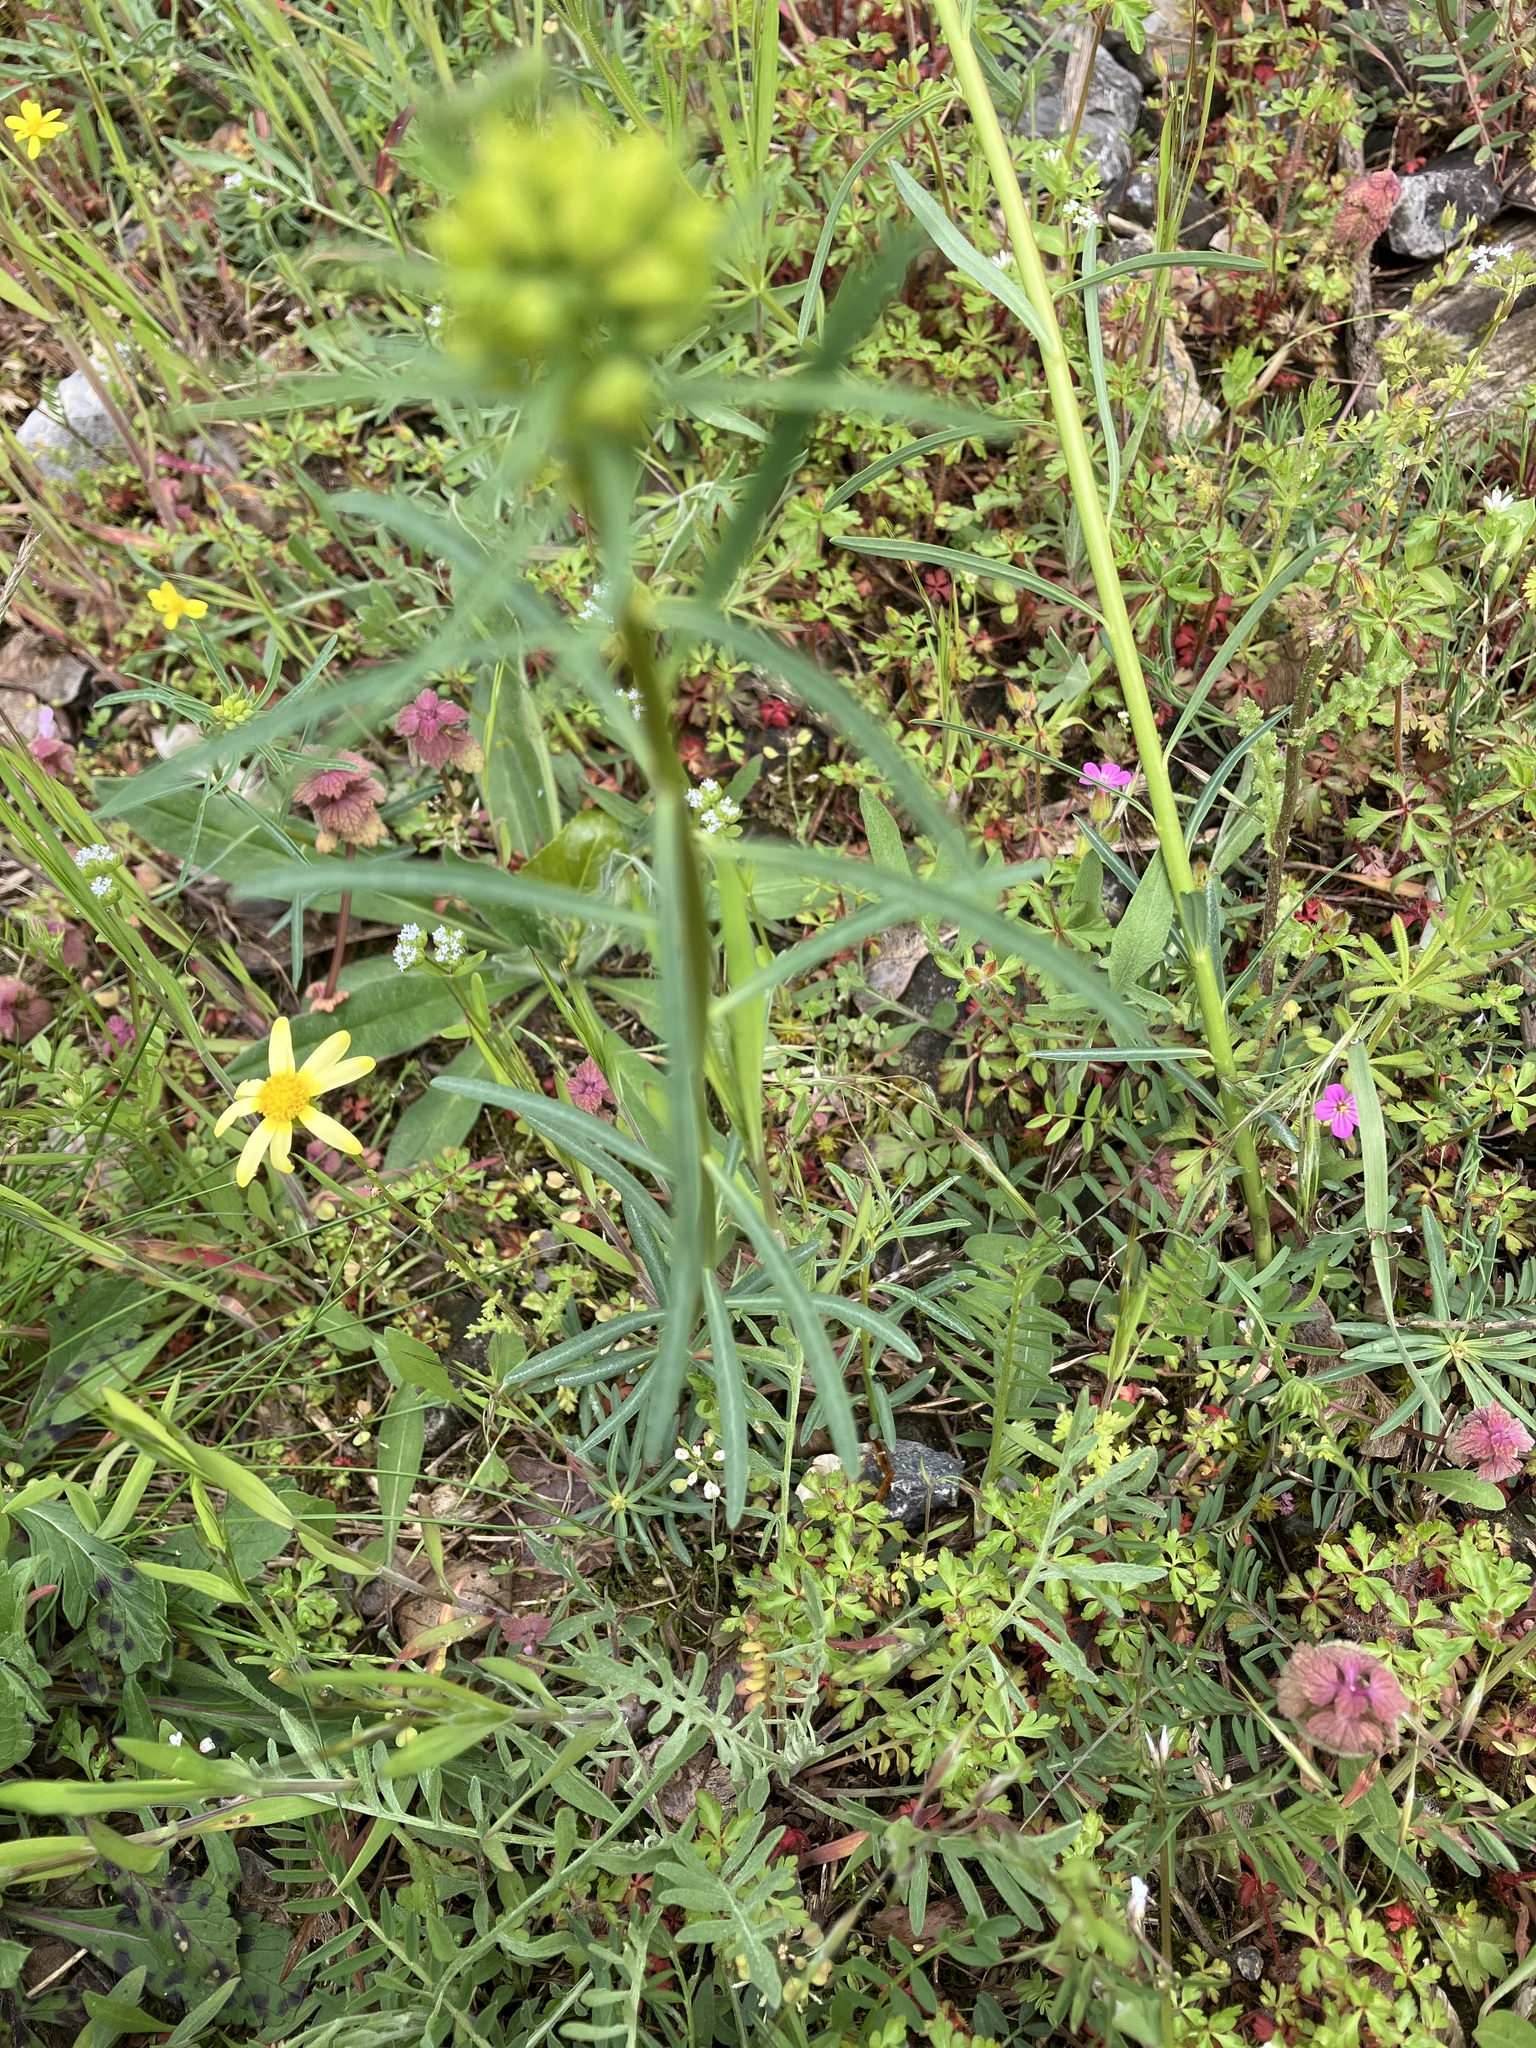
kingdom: Plantae
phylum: Tracheophyta
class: Magnoliopsida
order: Malpighiales
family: Euphorbiaceae
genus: Euphorbia
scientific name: Euphorbia esula
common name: Leafy spurge
